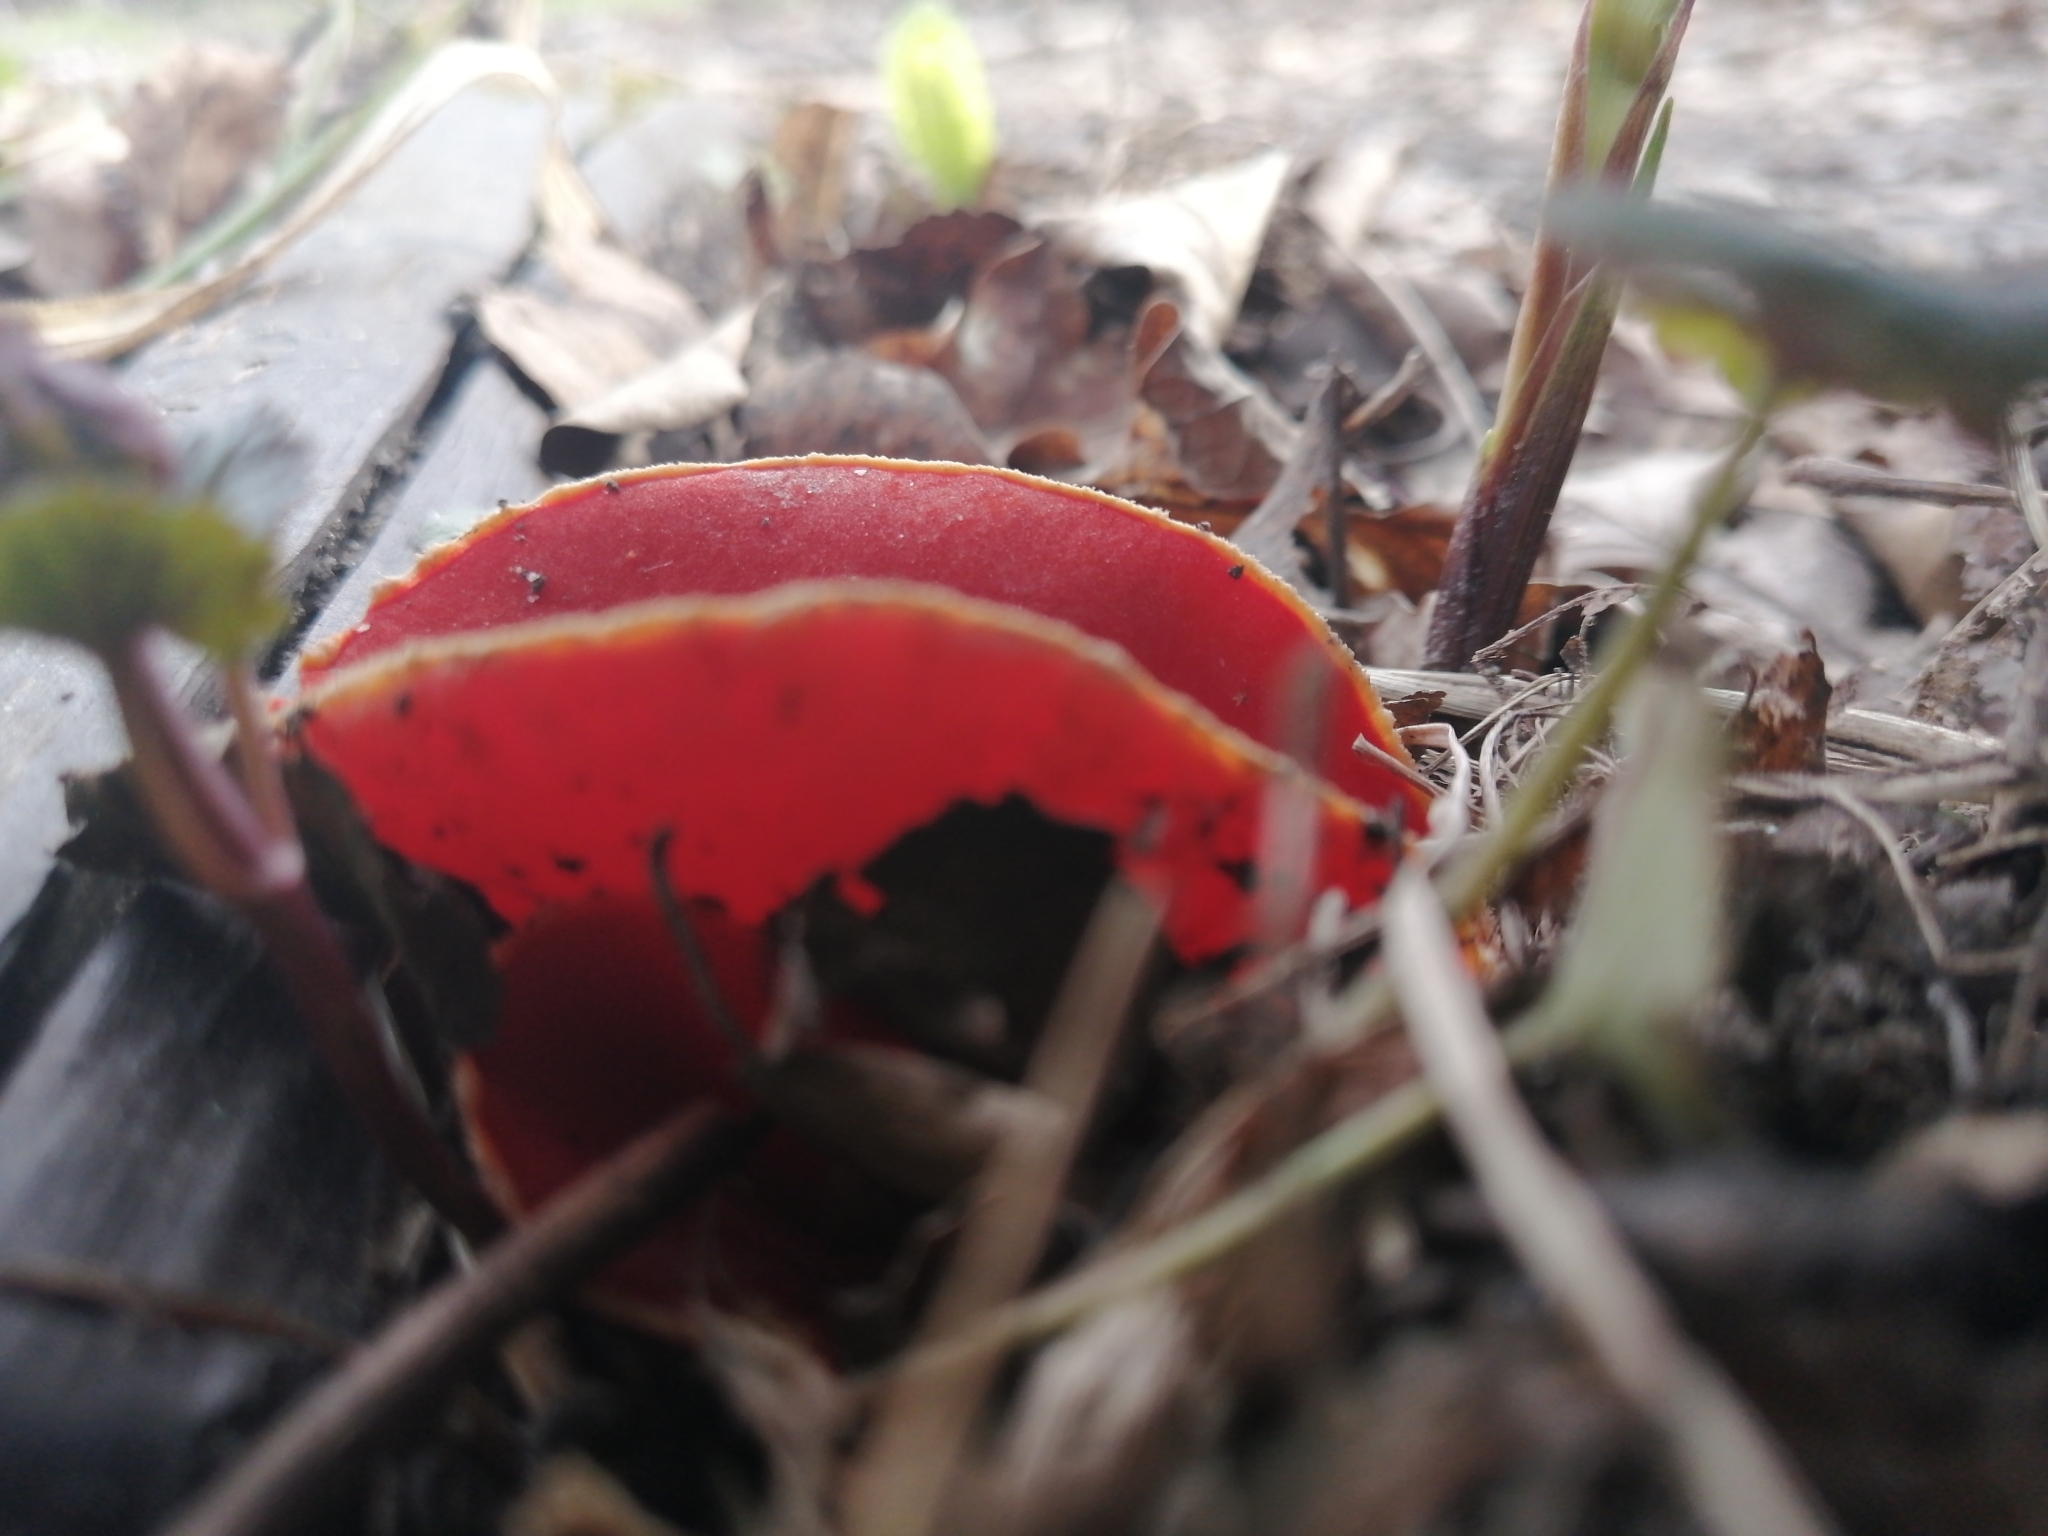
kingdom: Fungi
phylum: Ascomycota
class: Pezizomycetes
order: Pezizales
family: Sarcoscyphaceae
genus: Sarcoscypha
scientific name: Sarcoscypha austriaca
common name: Scarlet elfcup
